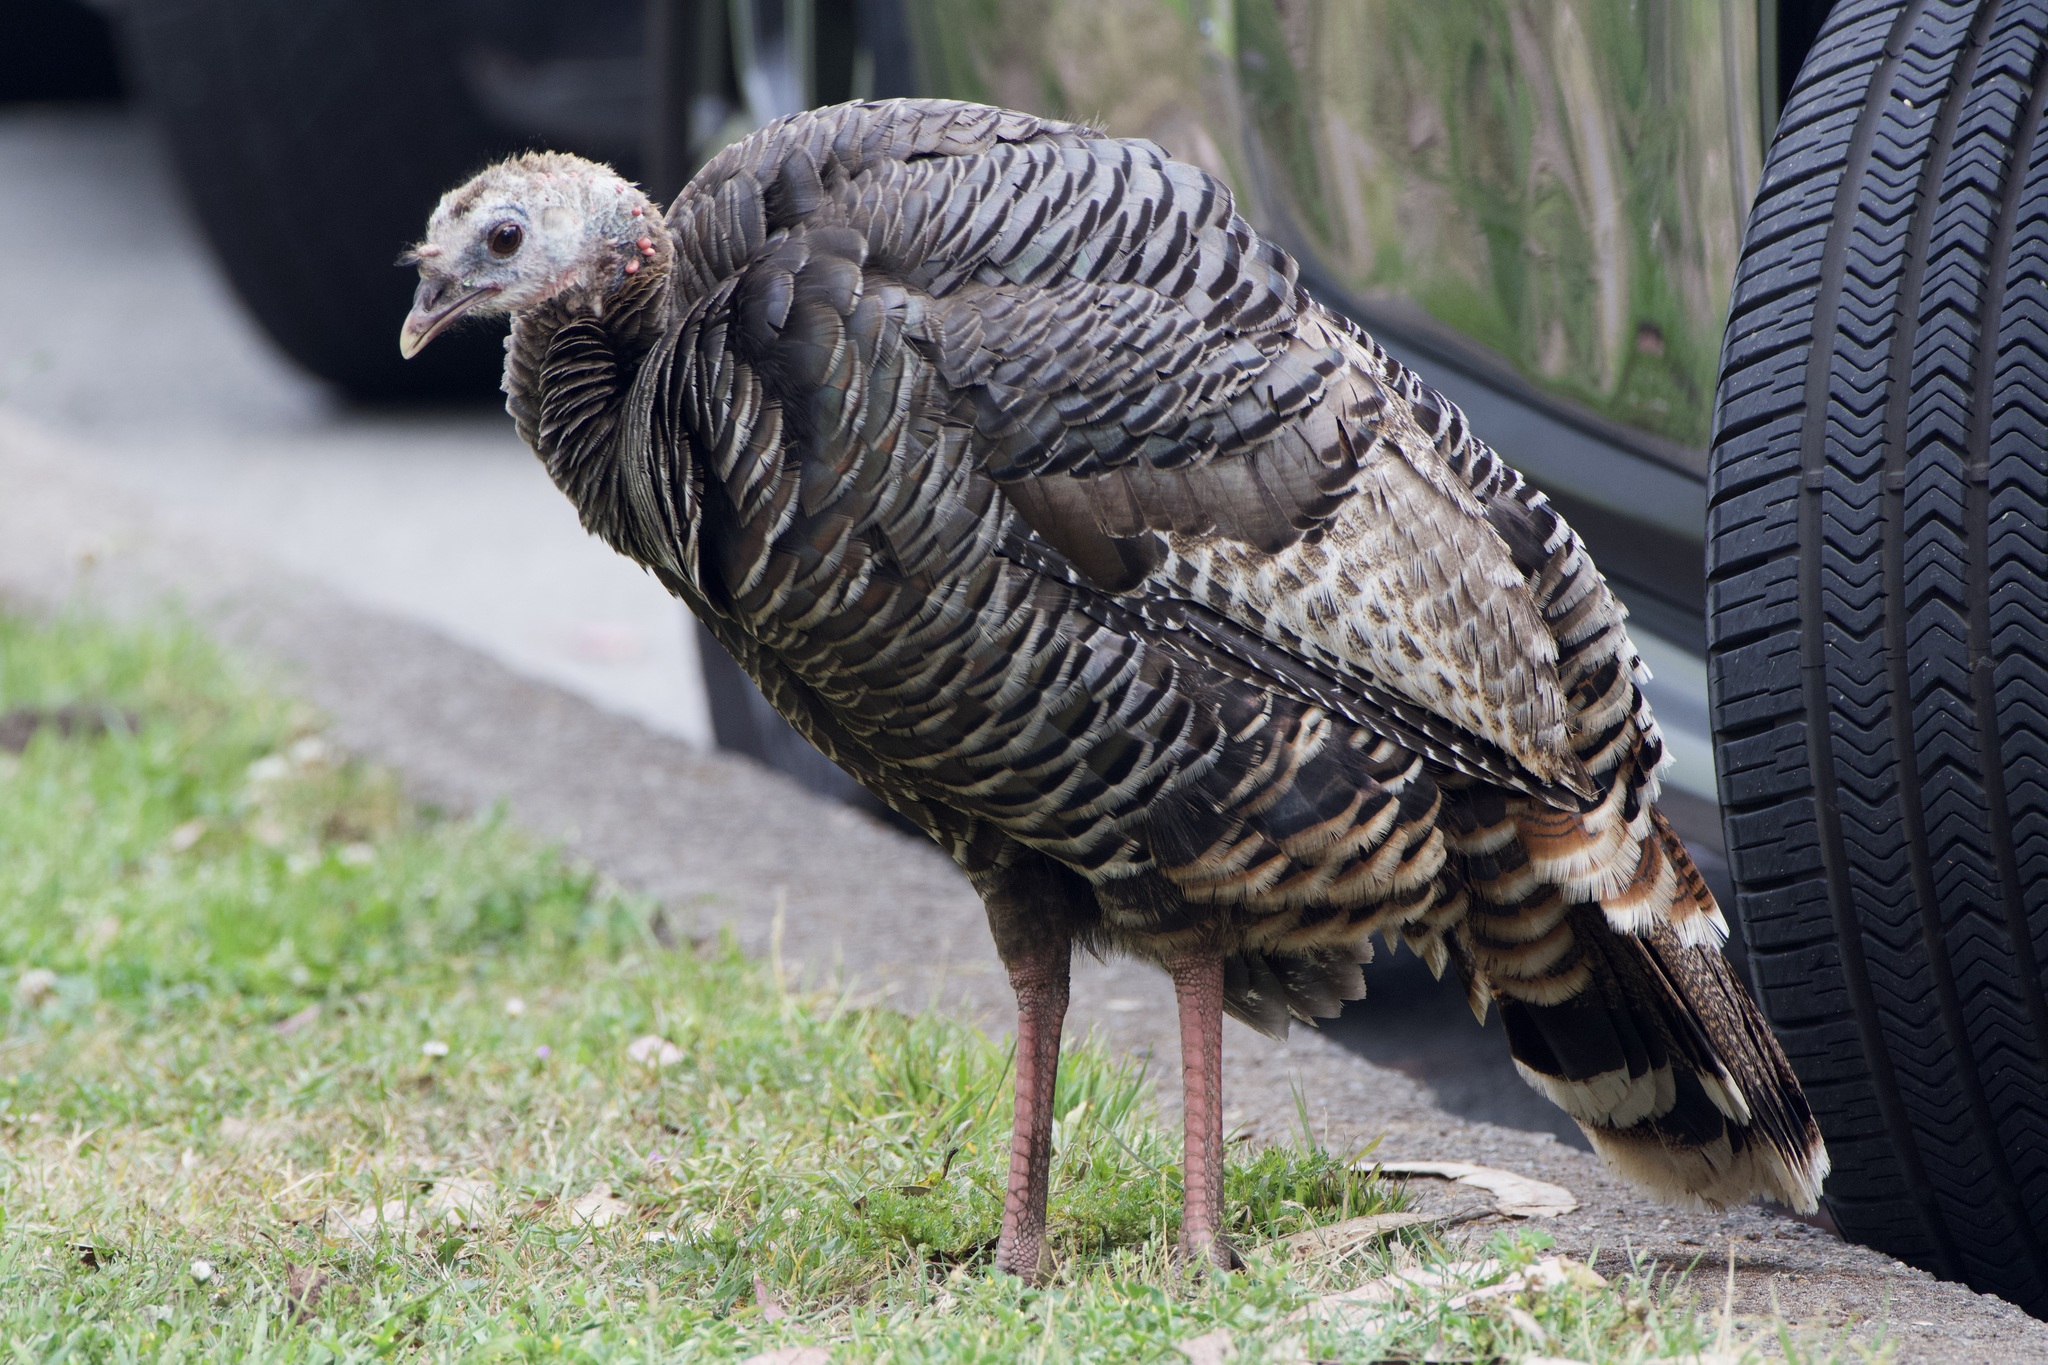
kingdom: Animalia
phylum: Chordata
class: Aves
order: Galliformes
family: Phasianidae
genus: Meleagris
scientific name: Meleagris gallopavo
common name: Wild turkey
